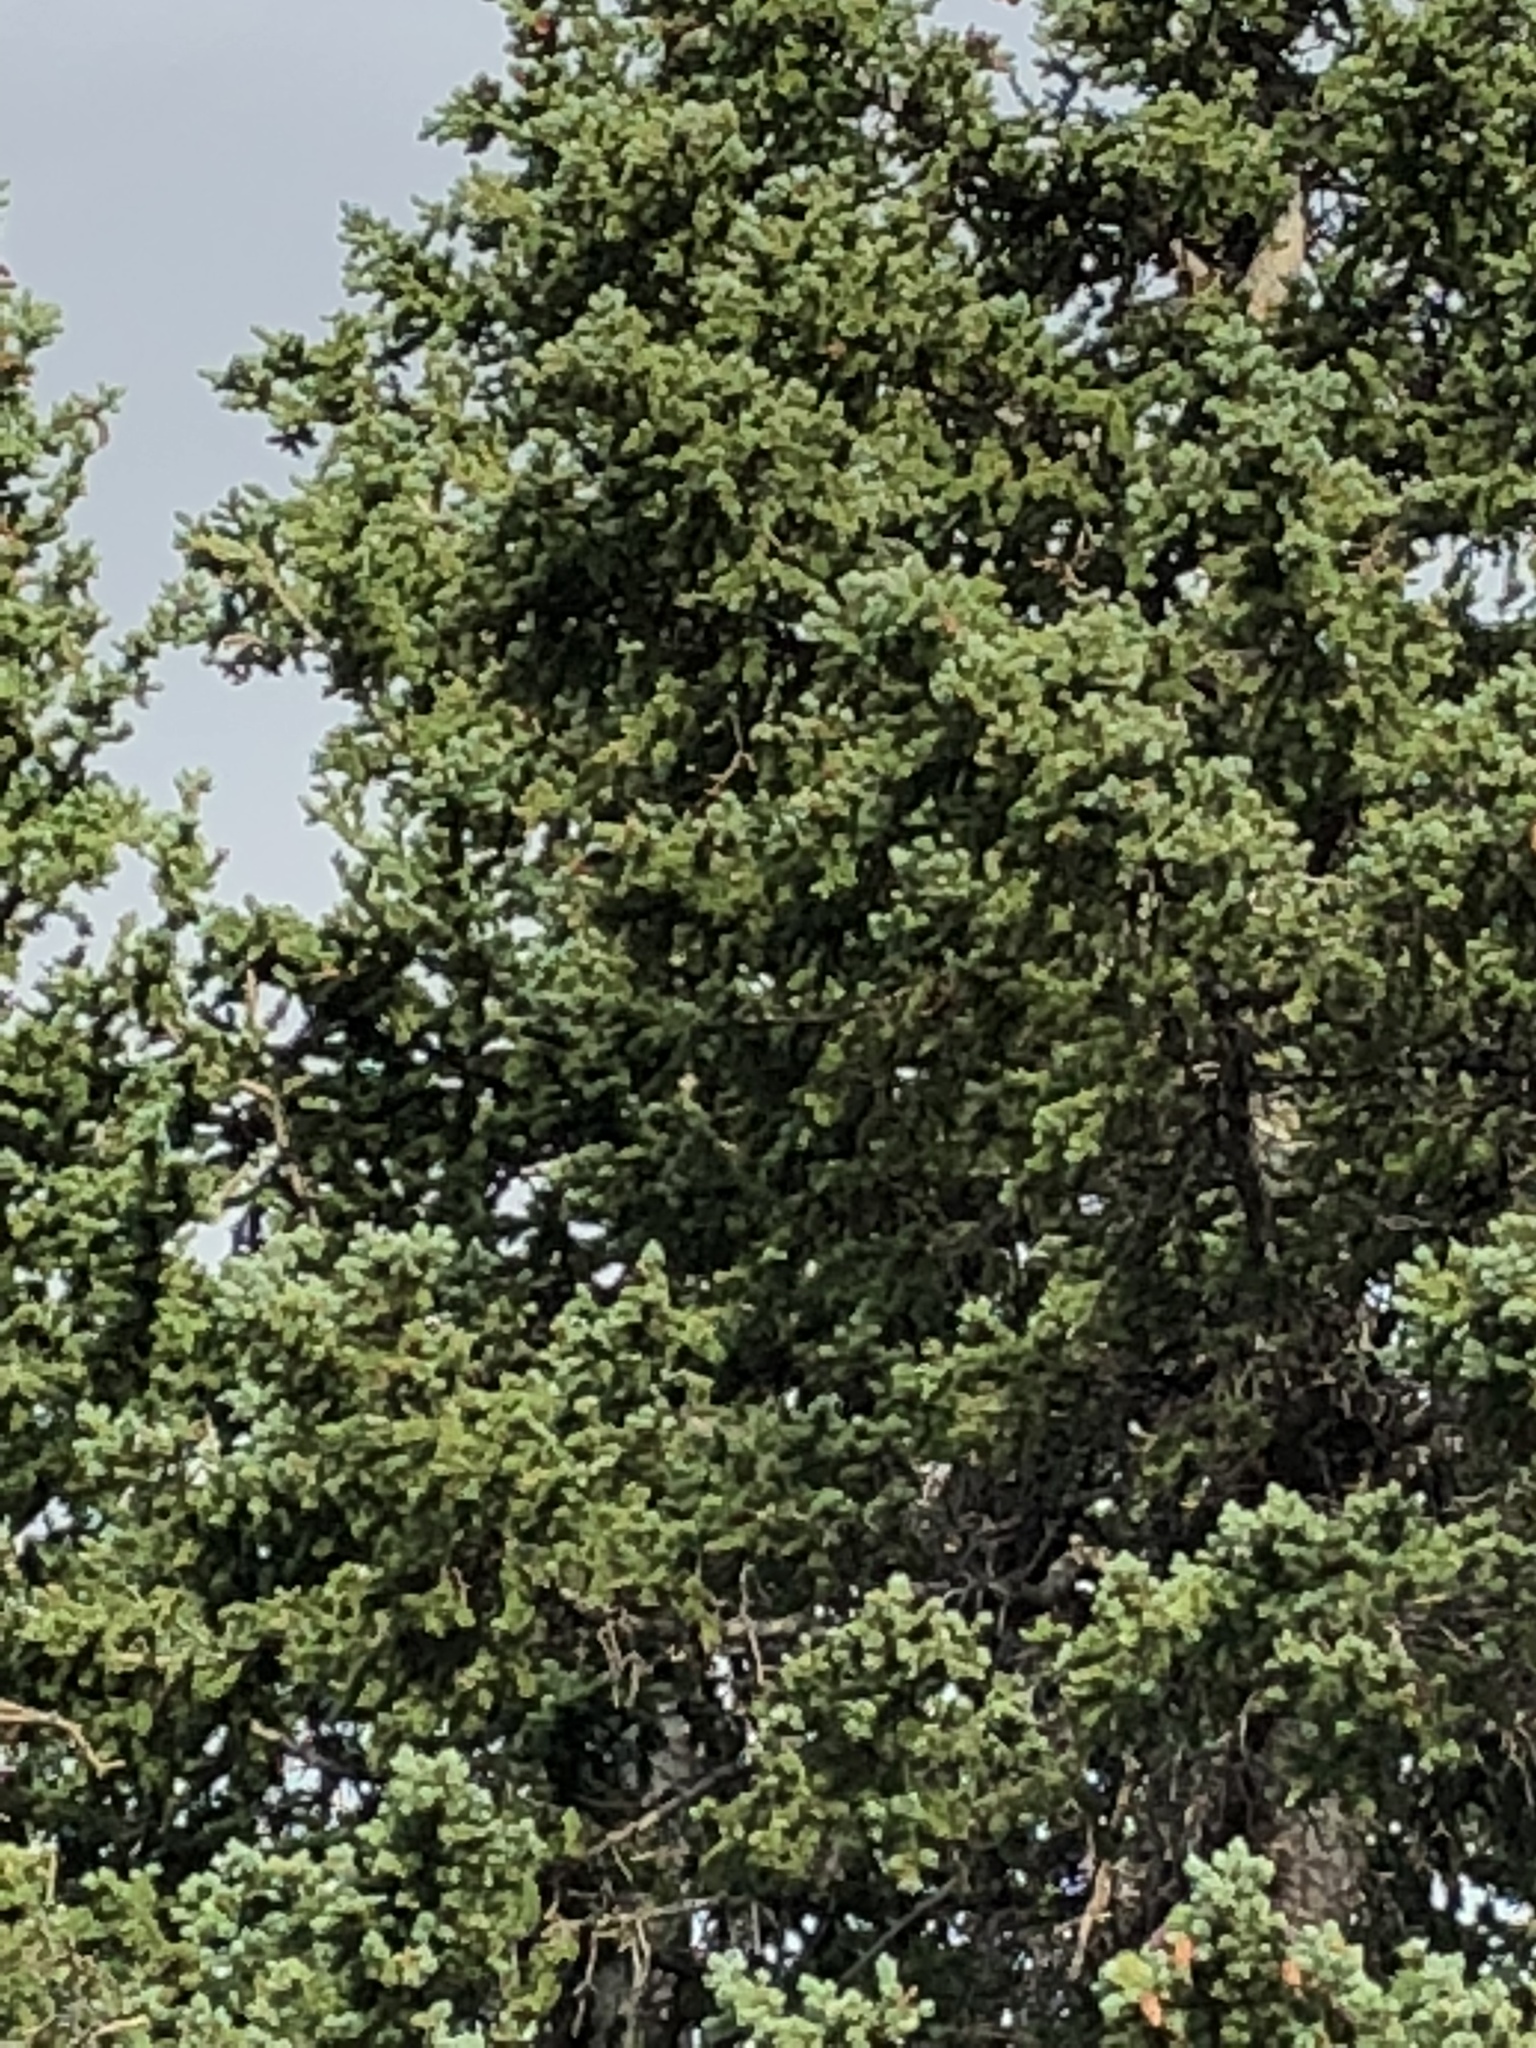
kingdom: Plantae
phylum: Tracheophyta
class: Pinopsida
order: Pinales
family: Pinaceae
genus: Picea
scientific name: Picea engelmannii
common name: Engelmann spruce
